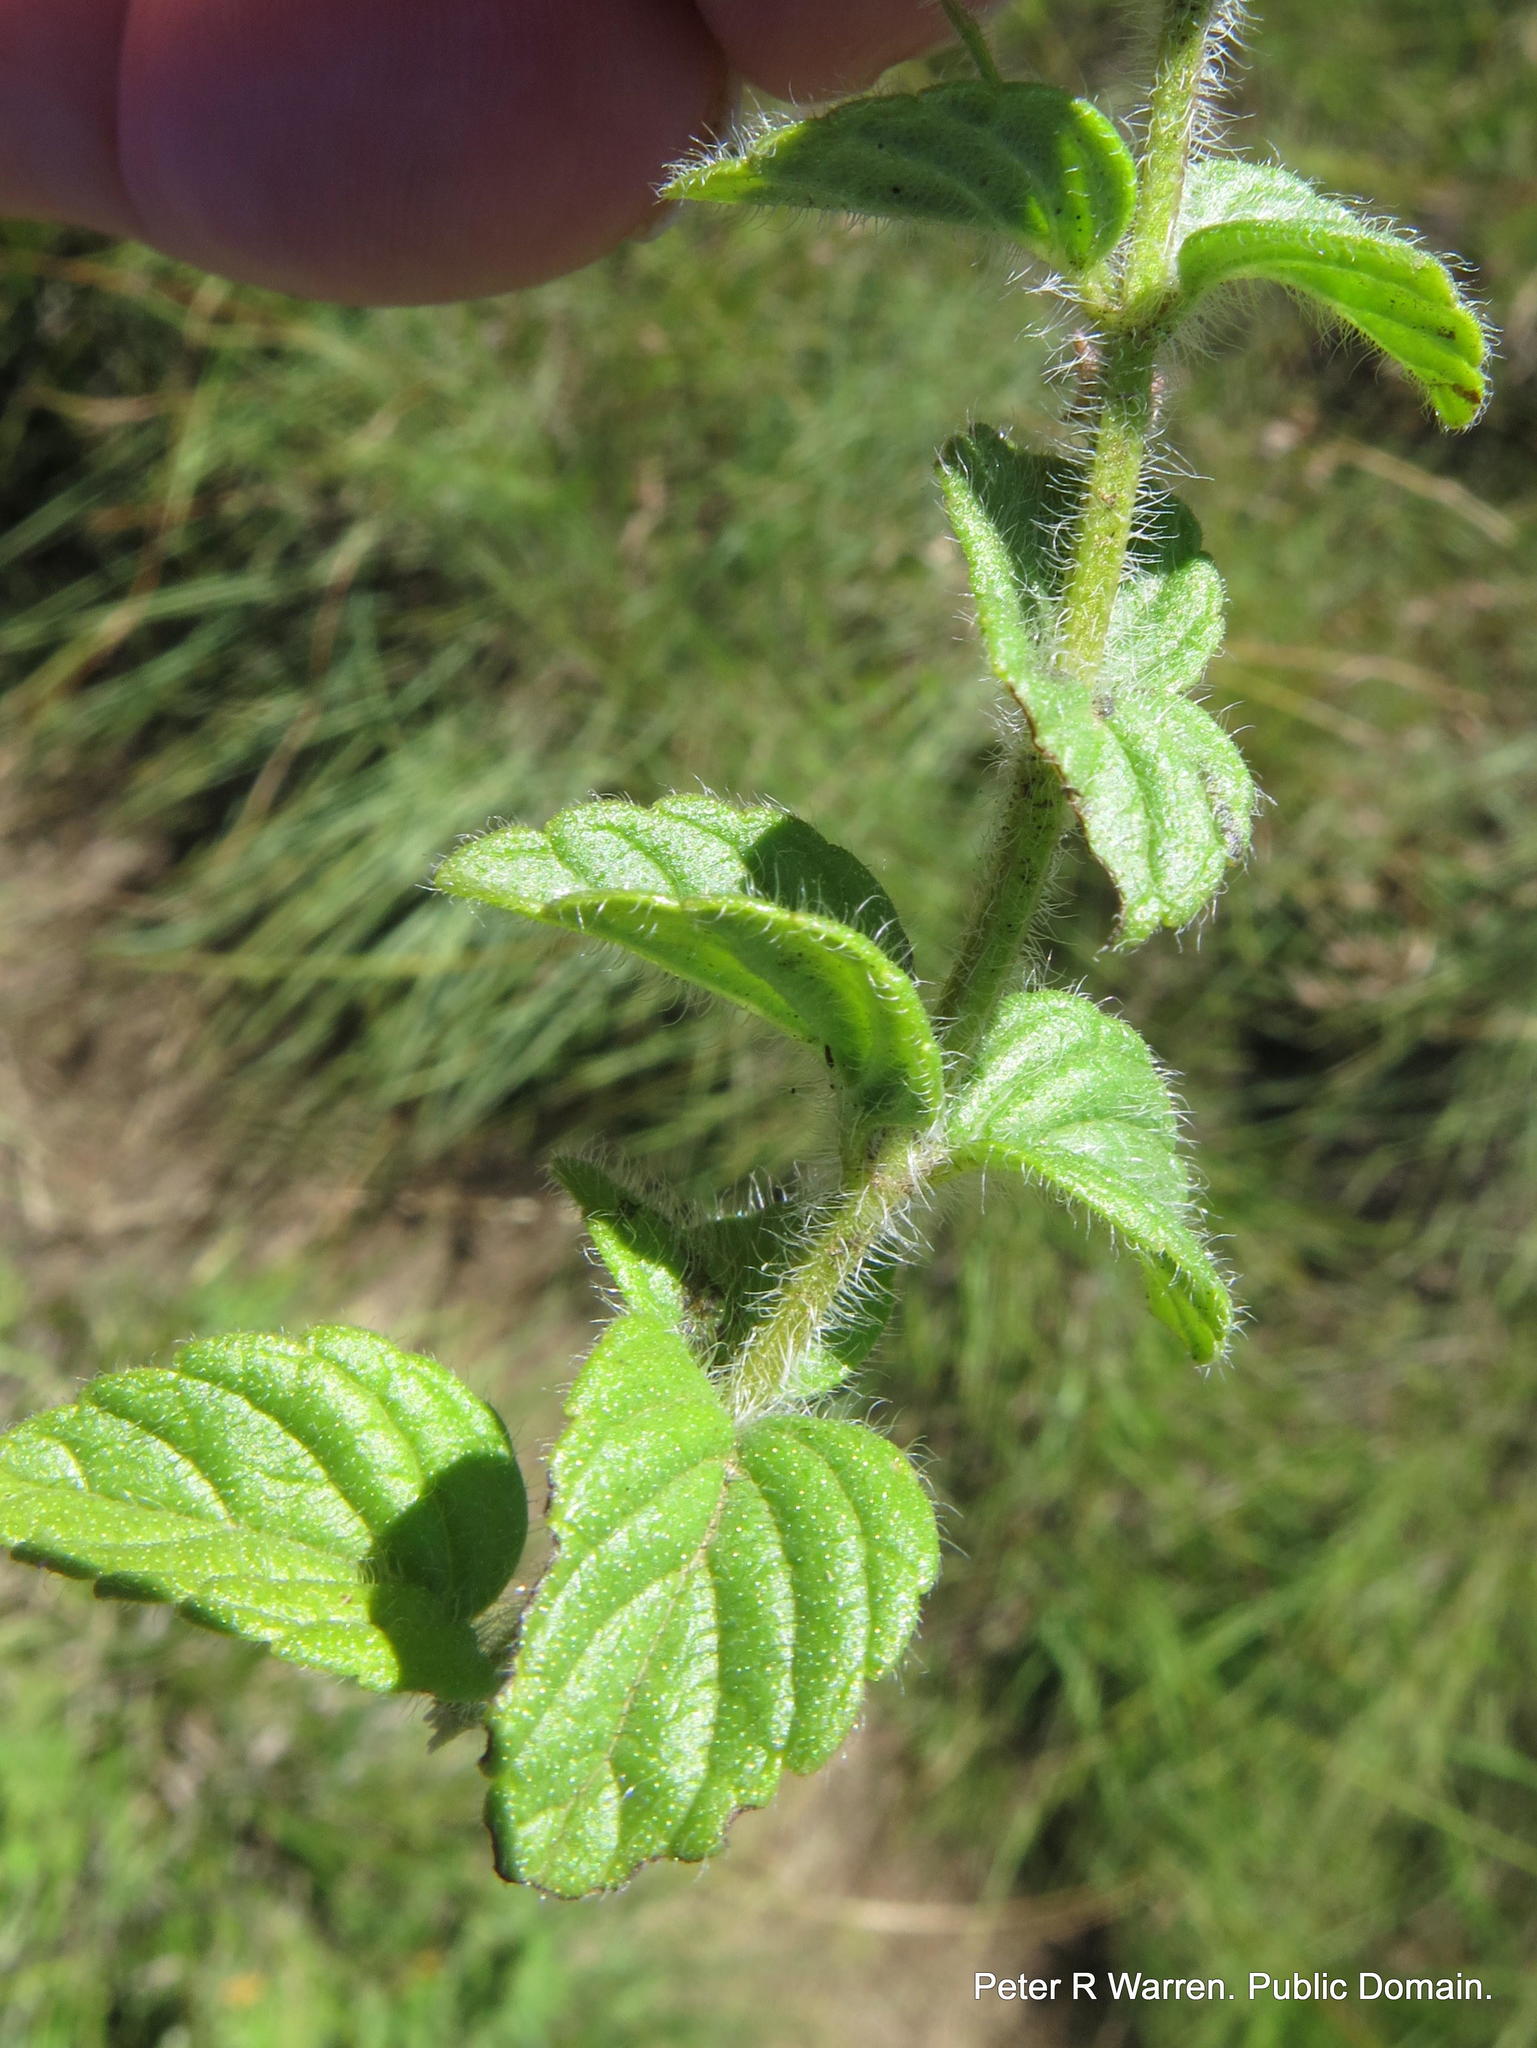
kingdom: Plantae
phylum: Tracheophyta
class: Magnoliopsida
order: Lamiales
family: Lamiaceae
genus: Killickia
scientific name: Killickia pilosa
